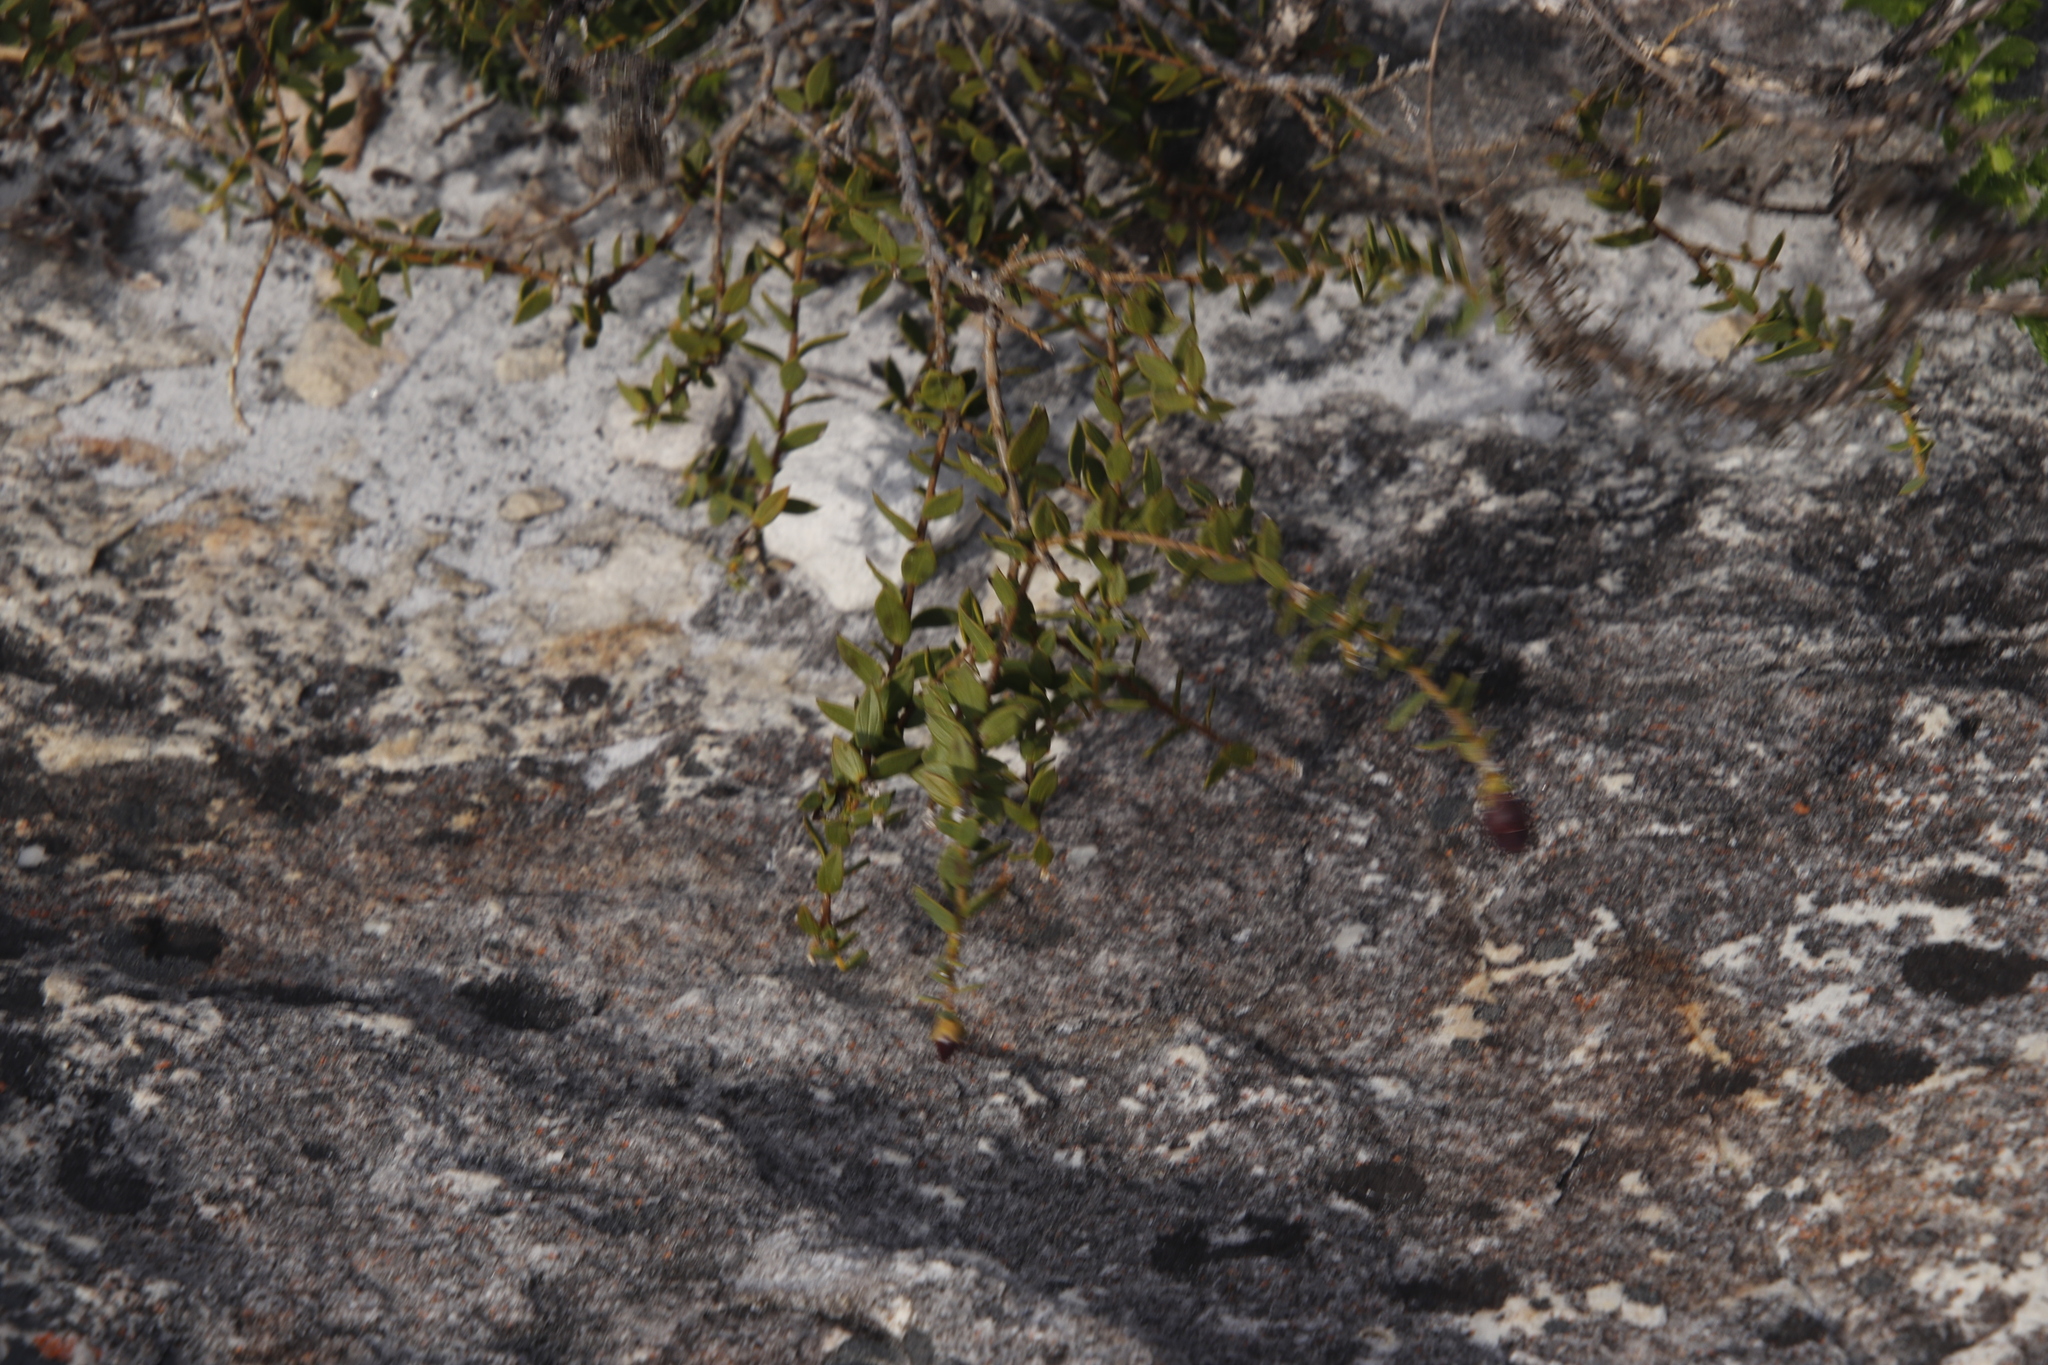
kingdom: Plantae
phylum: Tracheophyta
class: Magnoliopsida
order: Fabales
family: Fabaceae
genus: Liparia
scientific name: Liparia parva
